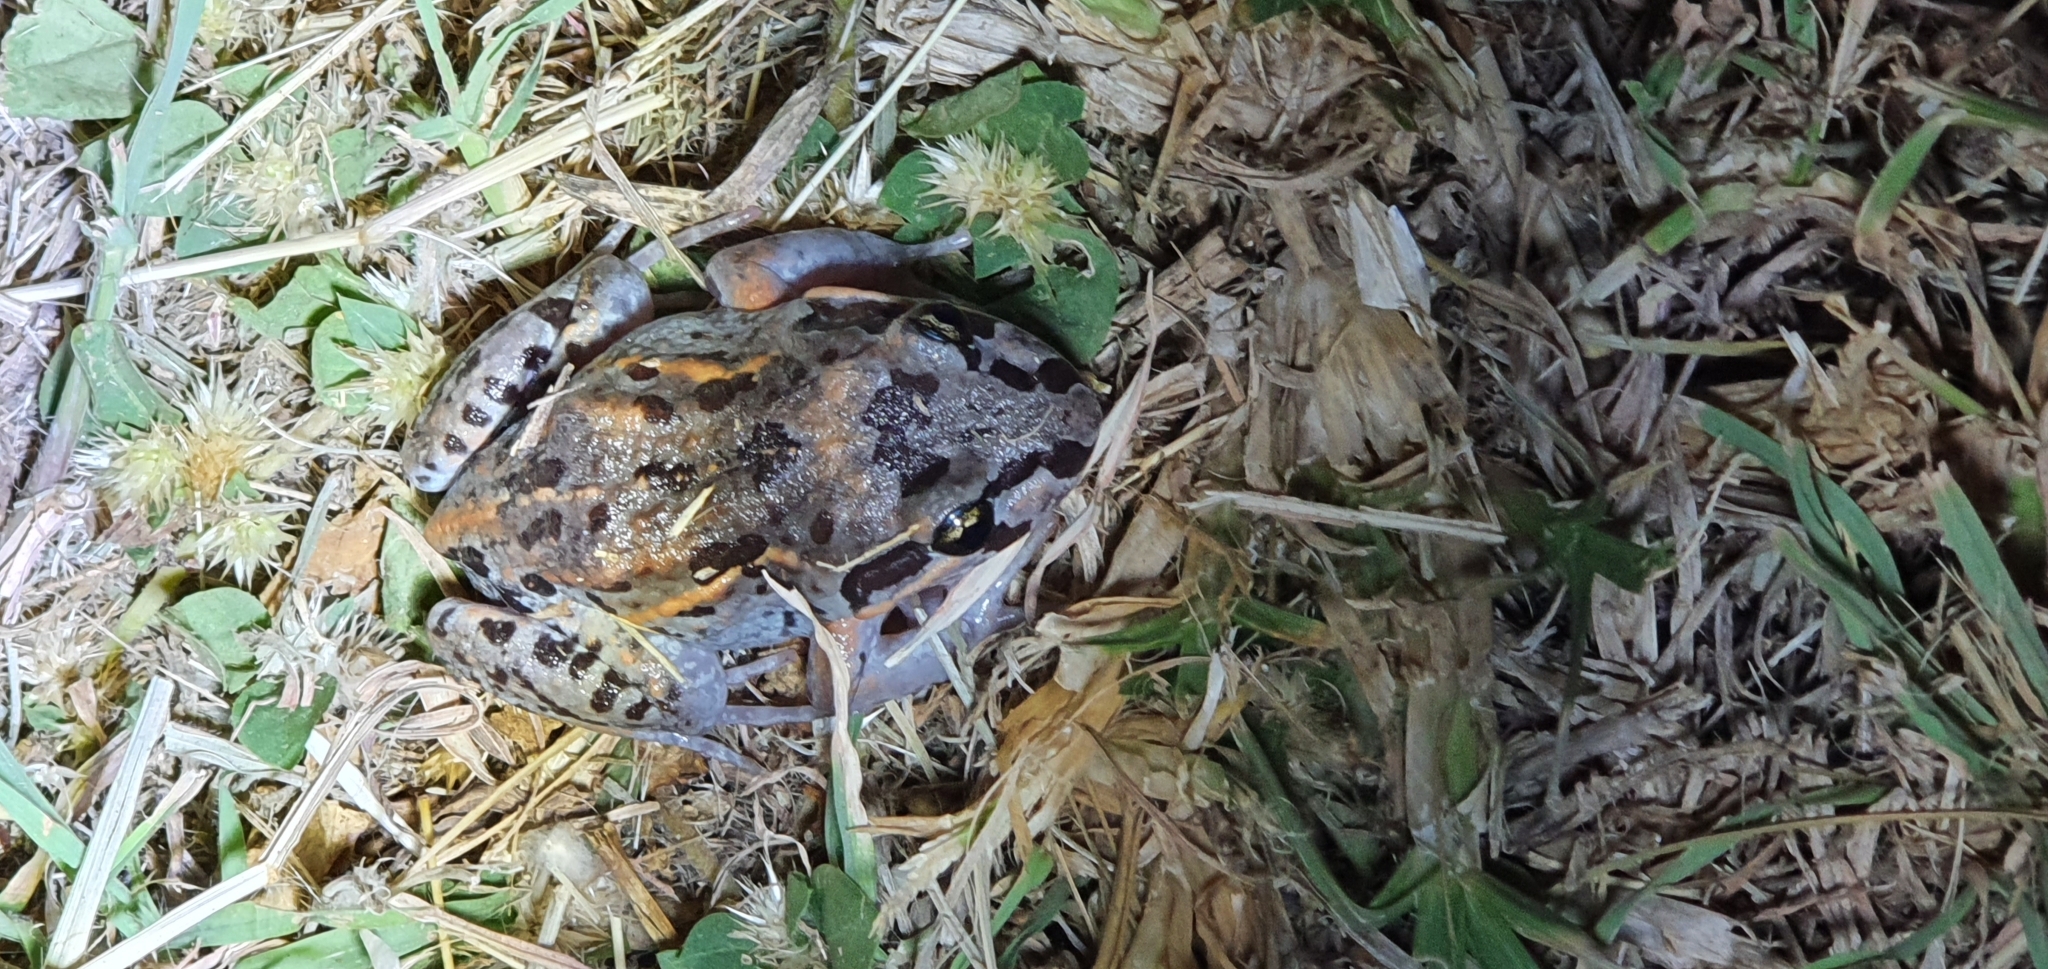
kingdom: Animalia
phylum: Chordata
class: Amphibia
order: Anura
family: Limnodynastidae
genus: Limnodynastes
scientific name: Limnodynastes salmini
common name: Salmon-striped frog
